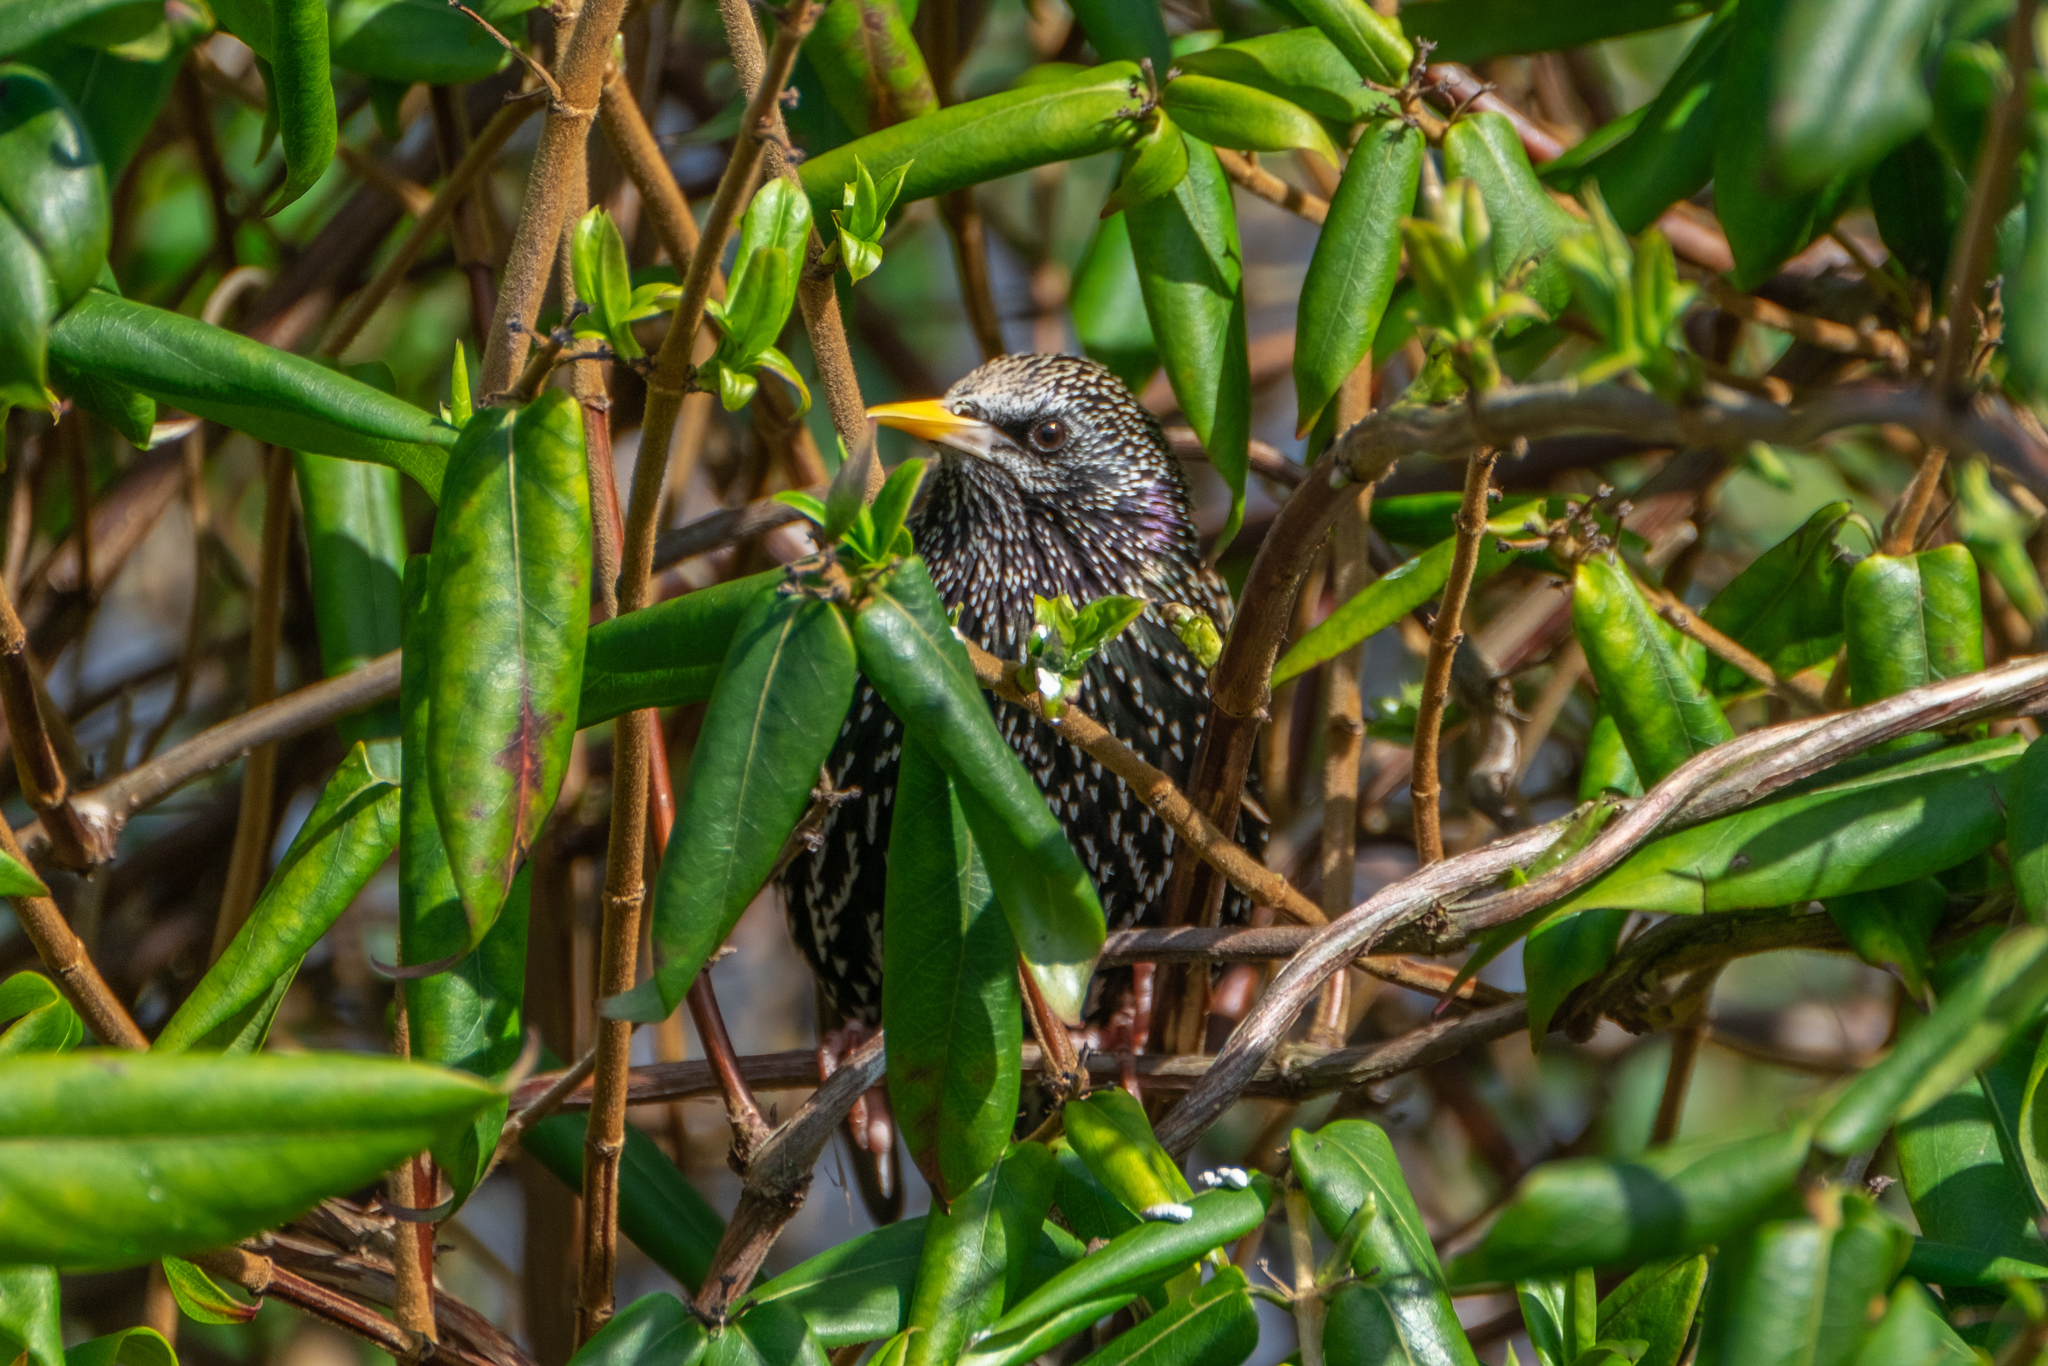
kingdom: Animalia
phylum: Chordata
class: Aves
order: Passeriformes
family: Sturnidae
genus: Sturnus
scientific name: Sturnus vulgaris
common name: Common starling
